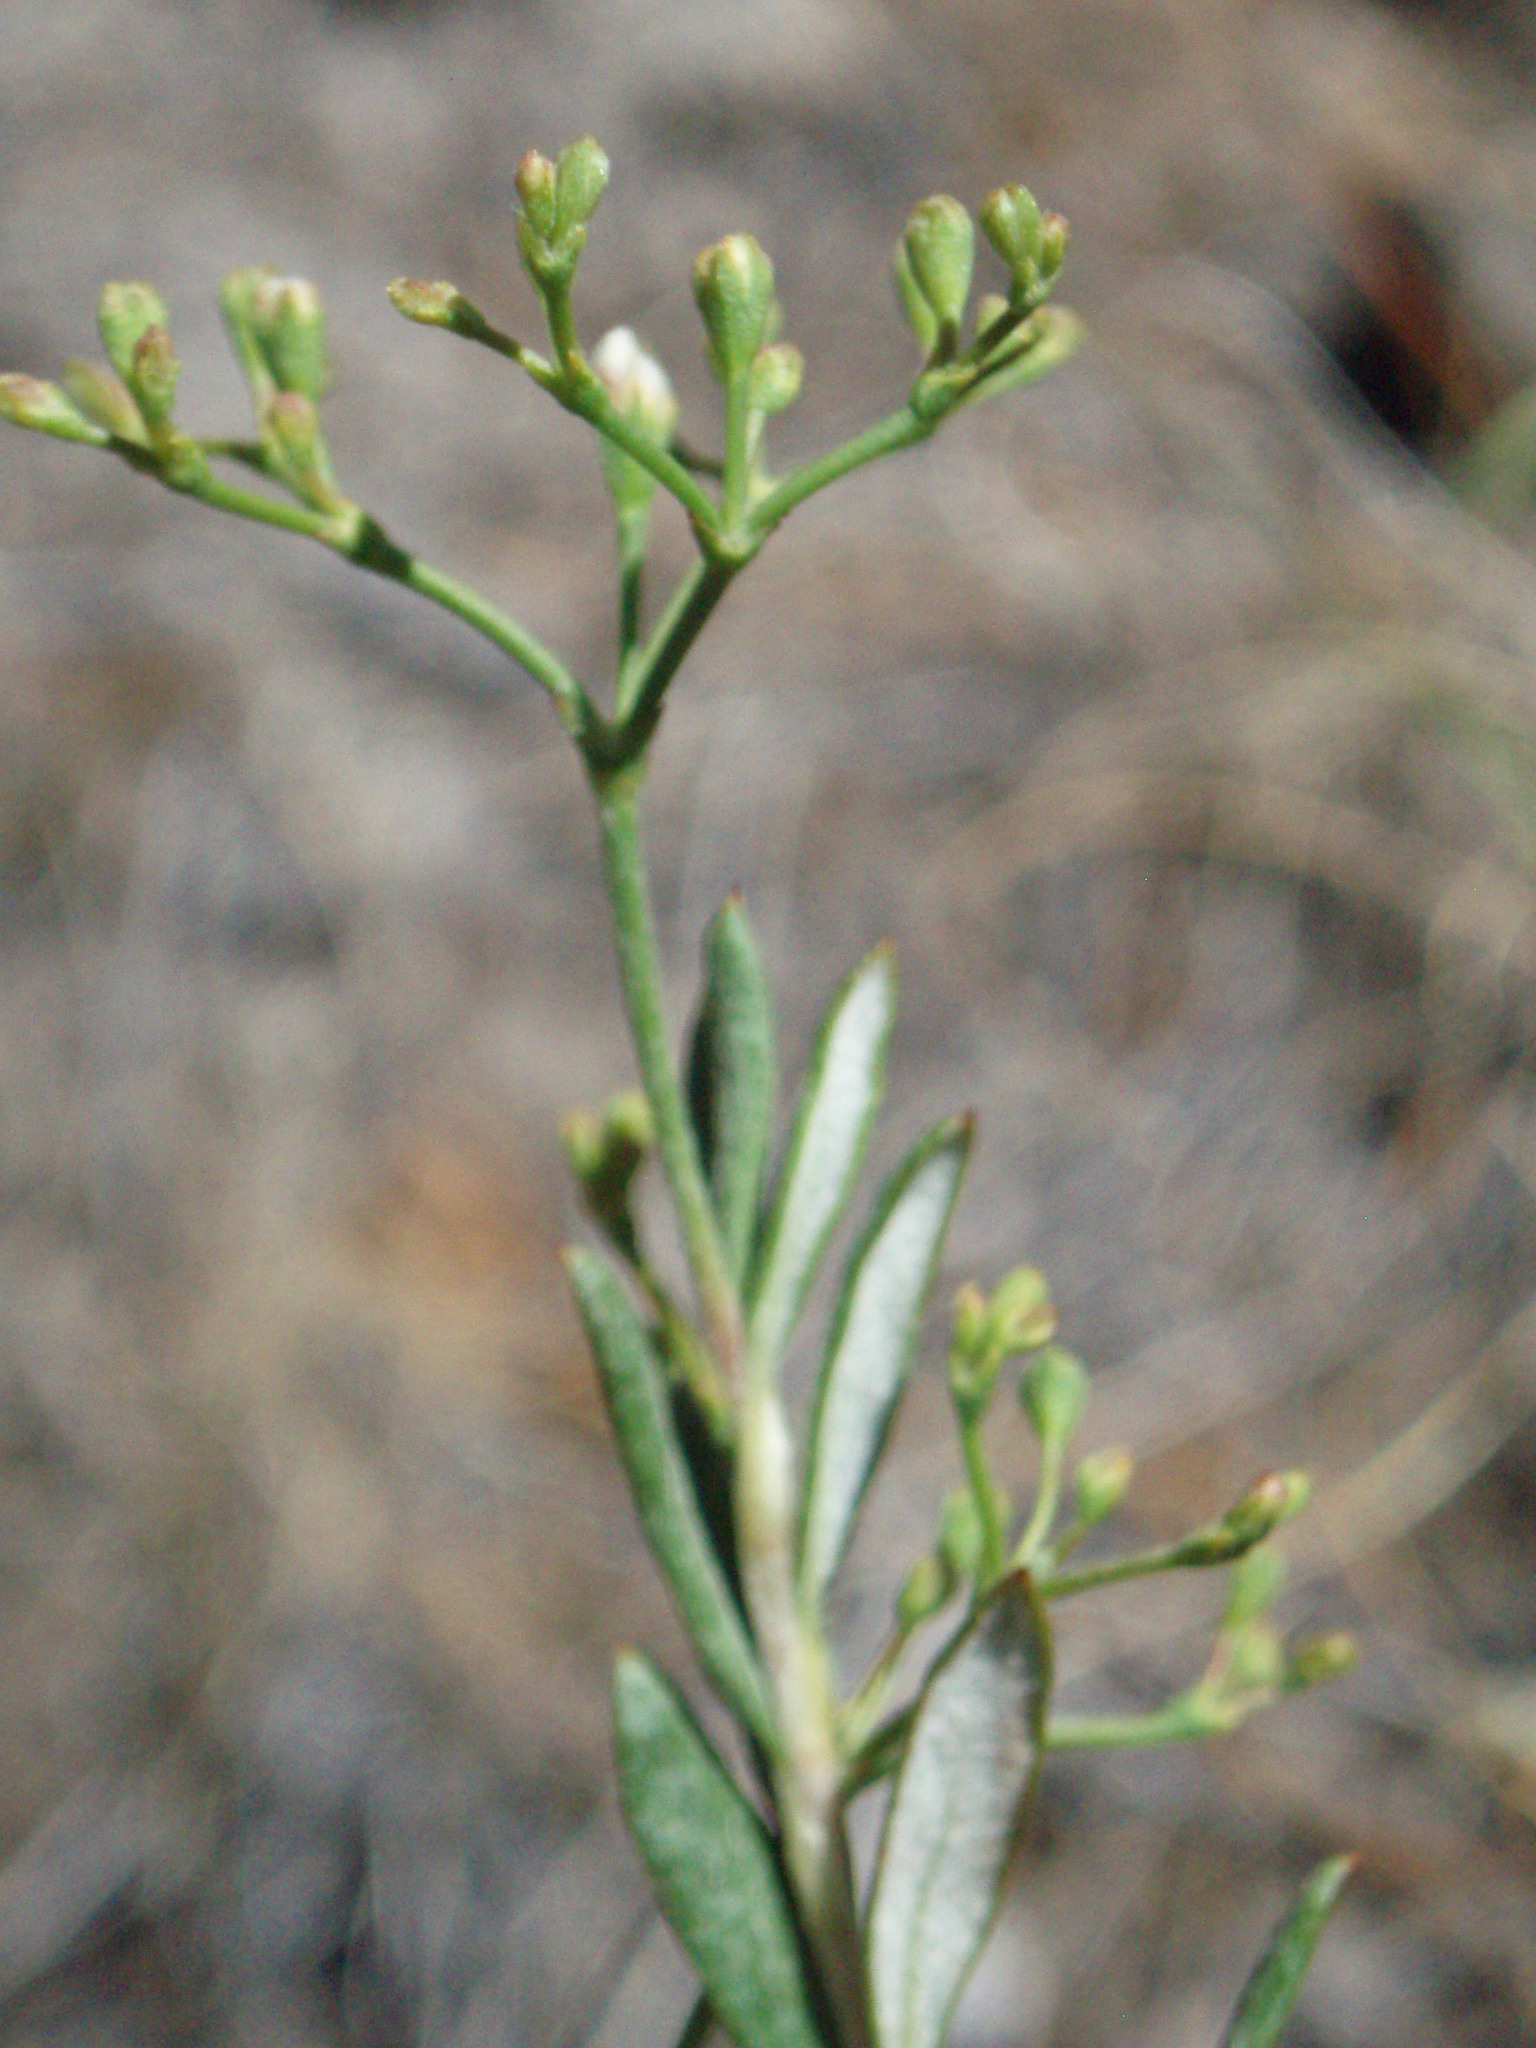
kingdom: Plantae
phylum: Tracheophyta
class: Magnoliopsida
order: Caryophyllales
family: Polygonaceae
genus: Eriogonum
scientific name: Eriogonum microtheca
